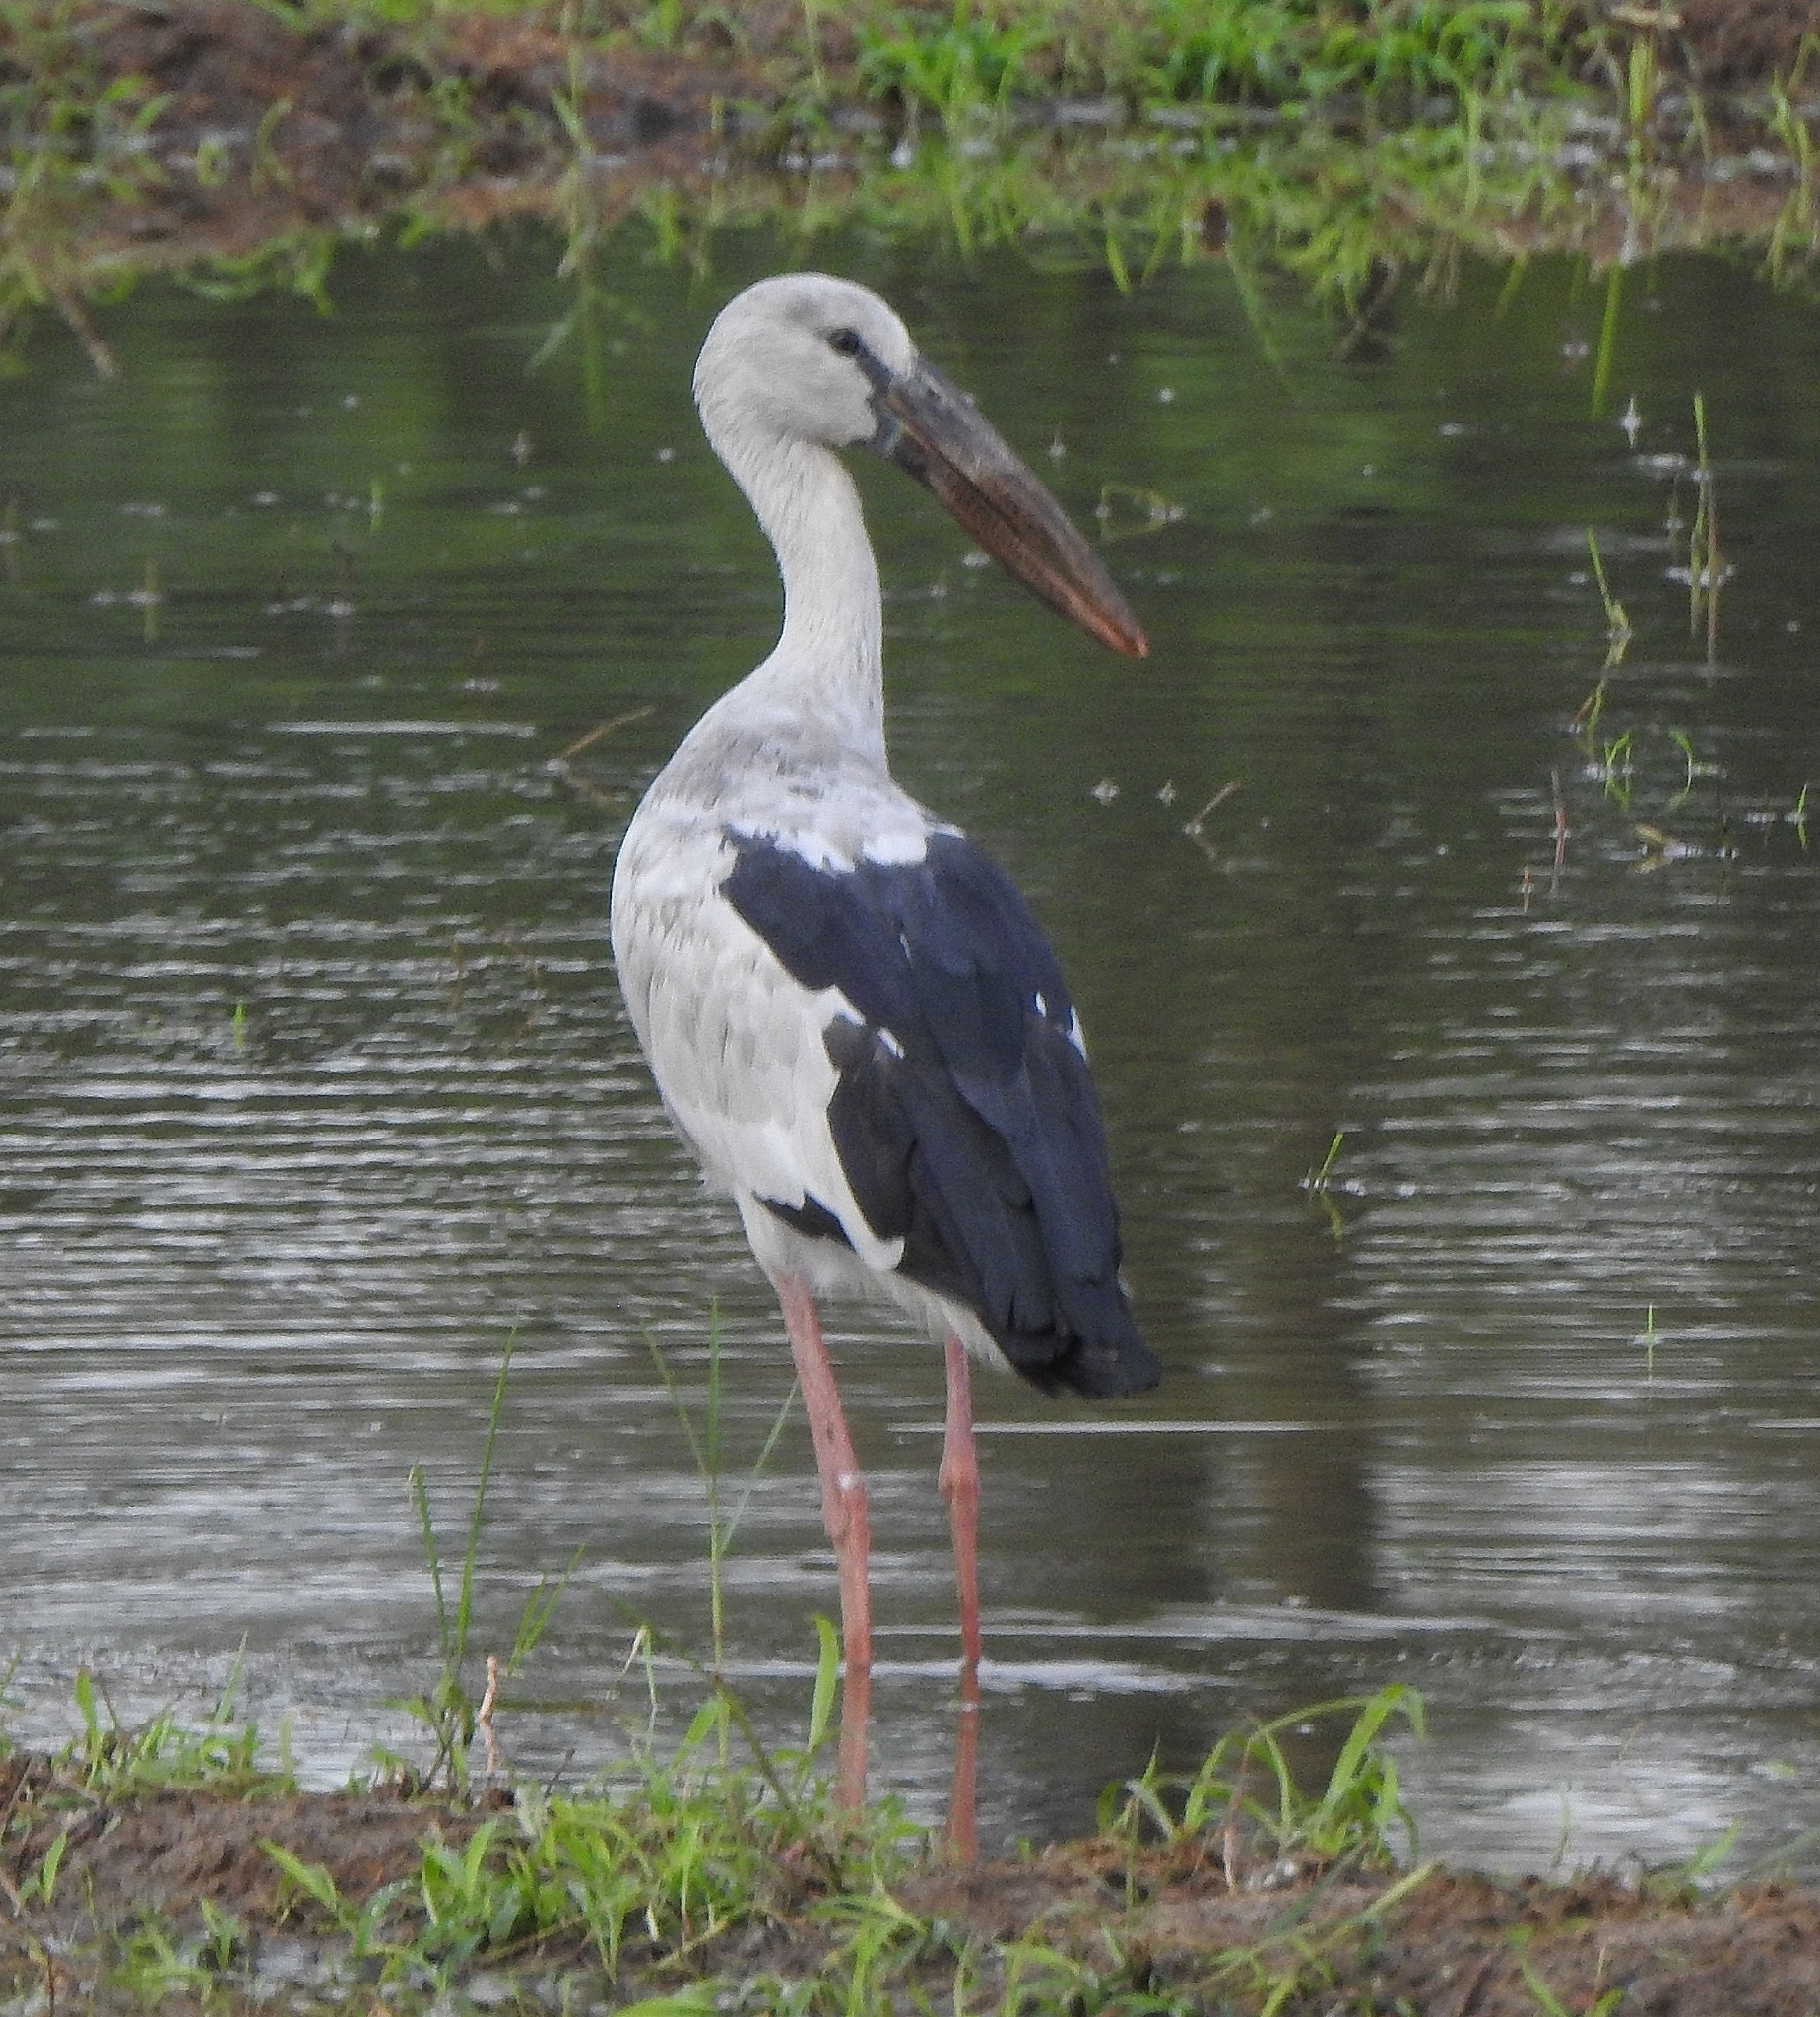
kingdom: Animalia
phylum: Chordata
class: Aves
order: Ciconiiformes
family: Ciconiidae
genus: Anastomus
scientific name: Anastomus oscitans
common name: Asian openbill
